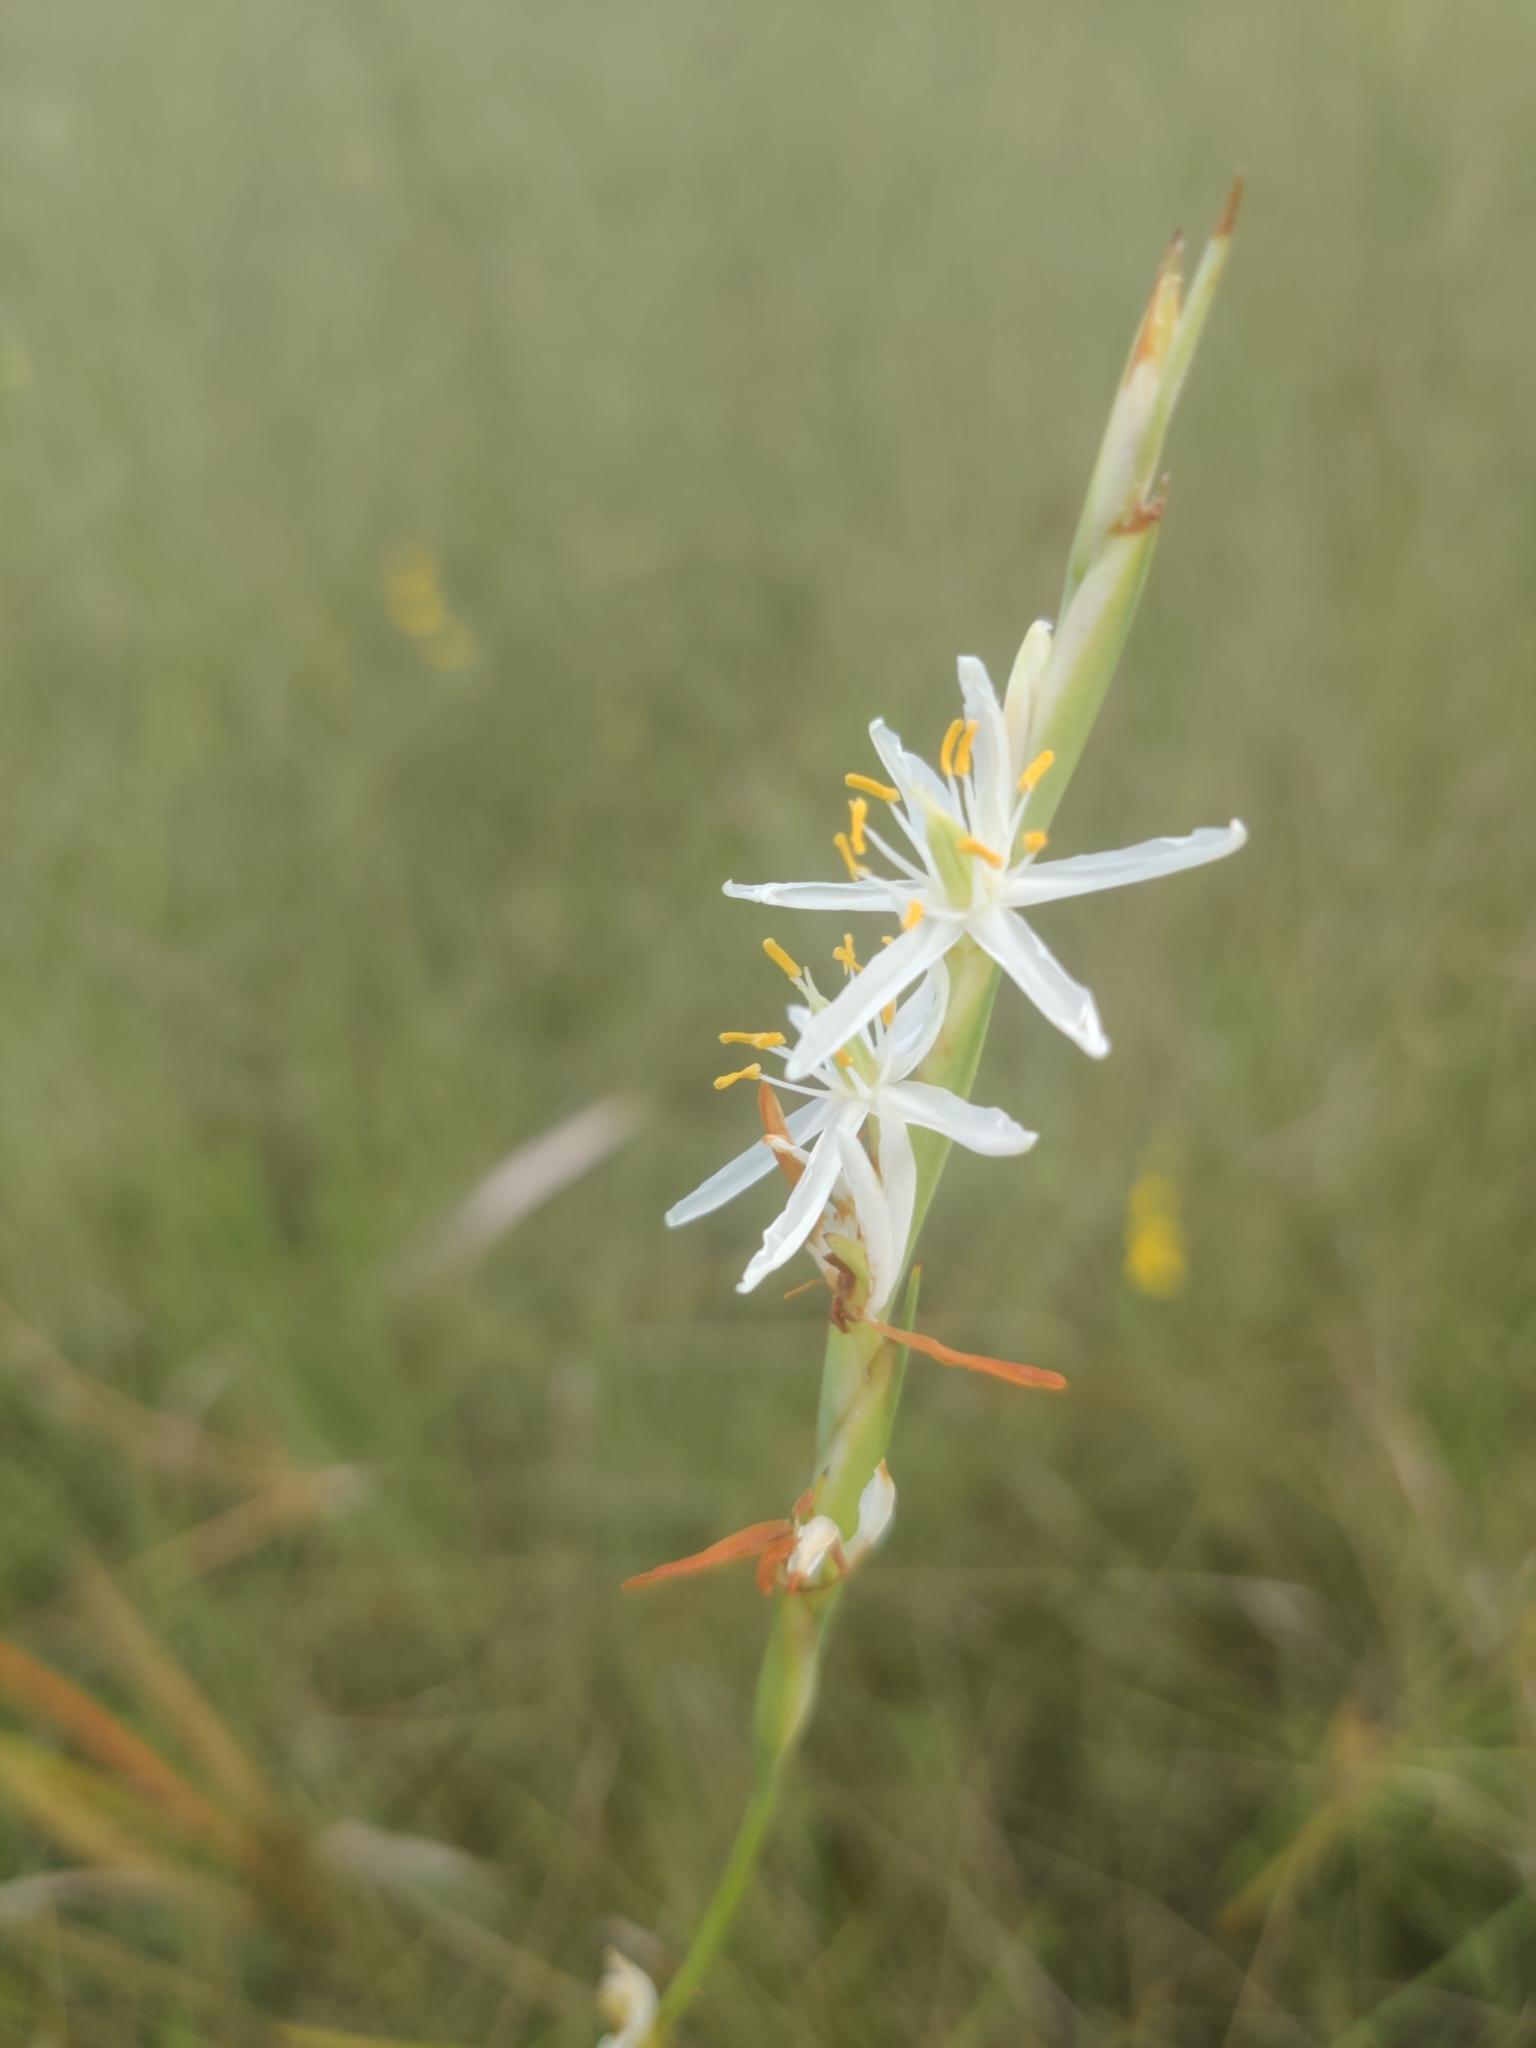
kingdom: Plantae
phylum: Tracheophyta
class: Liliopsida
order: Alismatales
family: Tofieldiaceae
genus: Pleea
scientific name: Pleea tenuifolia
